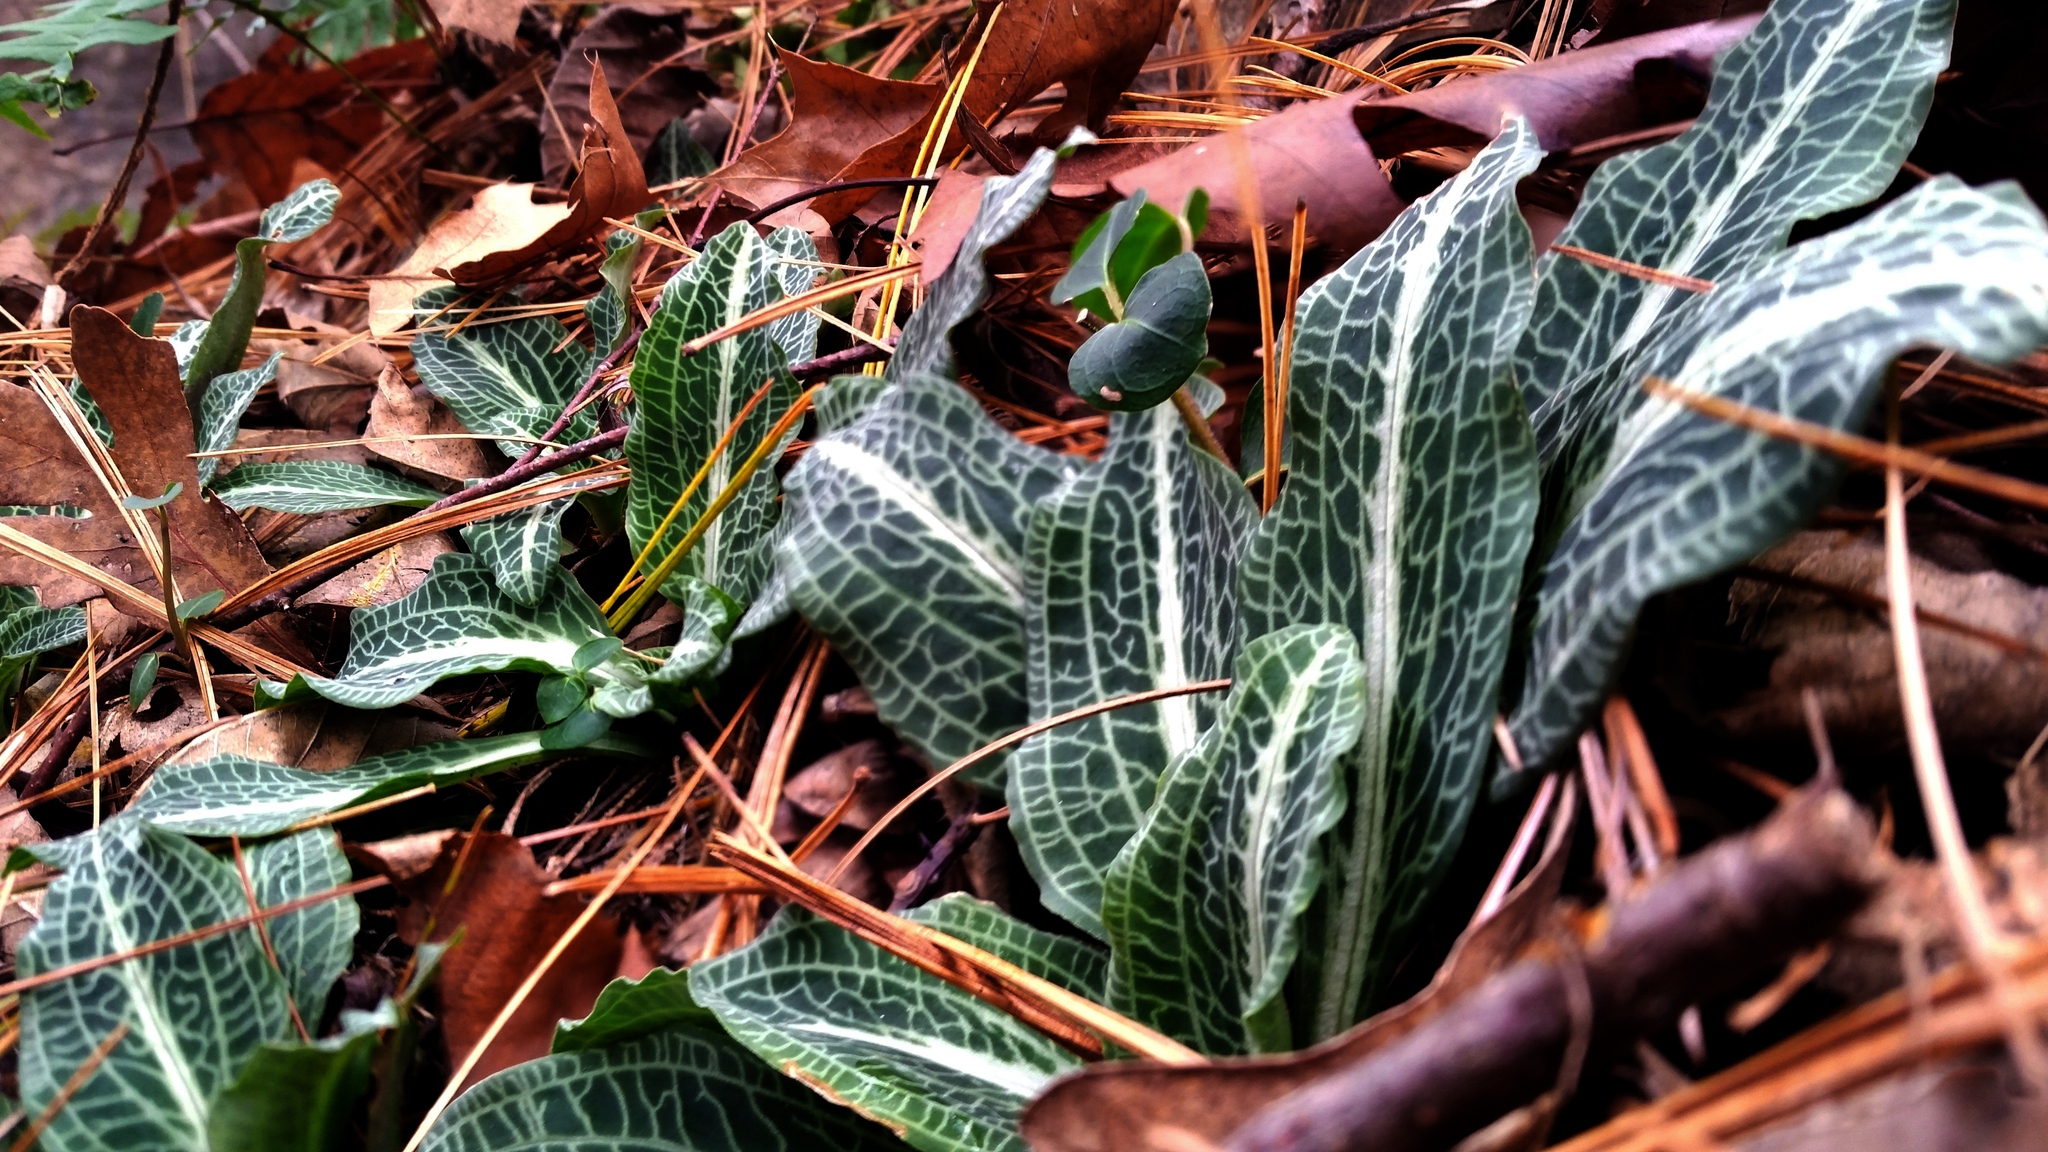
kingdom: Plantae
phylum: Tracheophyta
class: Liliopsida
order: Asparagales
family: Orchidaceae
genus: Goodyera
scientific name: Goodyera pubescens
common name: Downy rattlesnake-plantain
